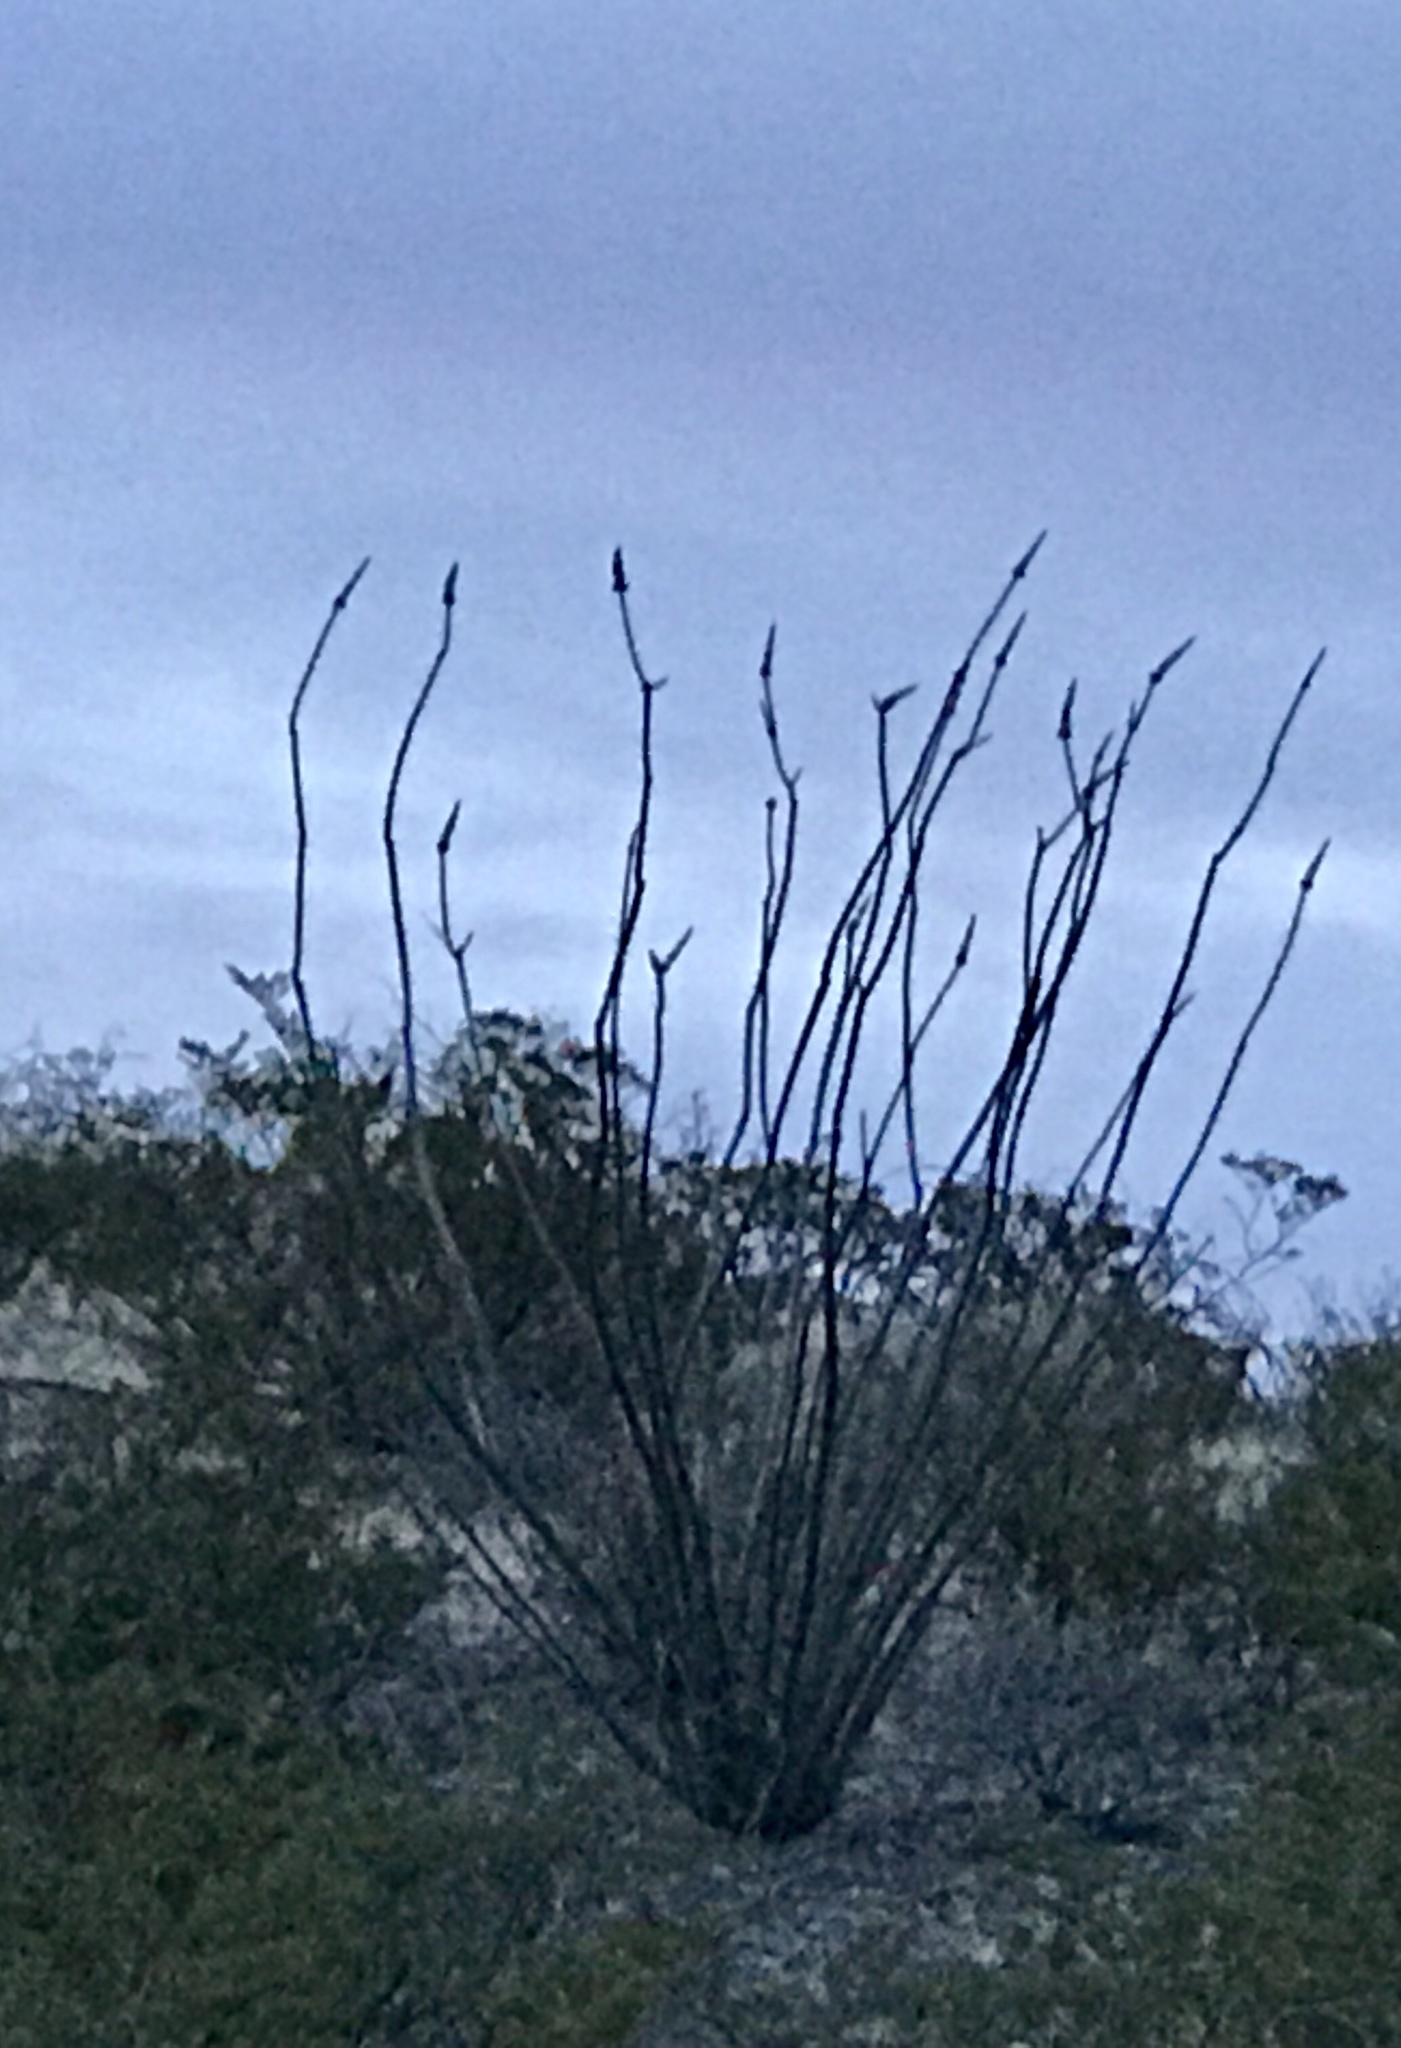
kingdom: Plantae
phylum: Tracheophyta
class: Magnoliopsida
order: Ericales
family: Fouquieriaceae
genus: Fouquieria
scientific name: Fouquieria splendens
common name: Vine-cactus
